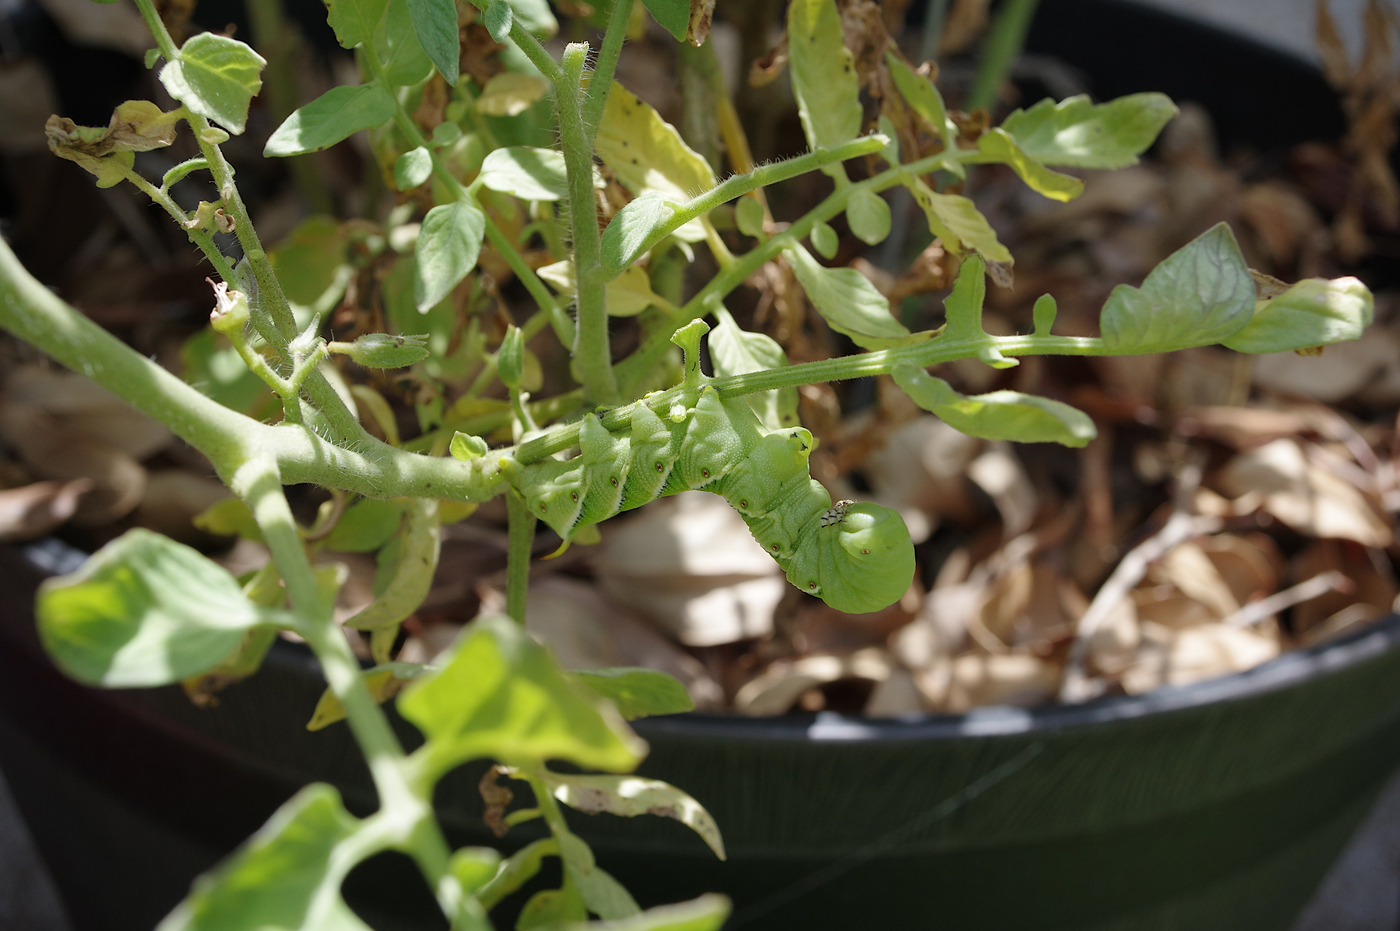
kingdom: Animalia
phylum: Arthropoda
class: Insecta
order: Lepidoptera
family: Sphingidae
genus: Manduca
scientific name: Manduca sexta
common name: Carolina sphinx
